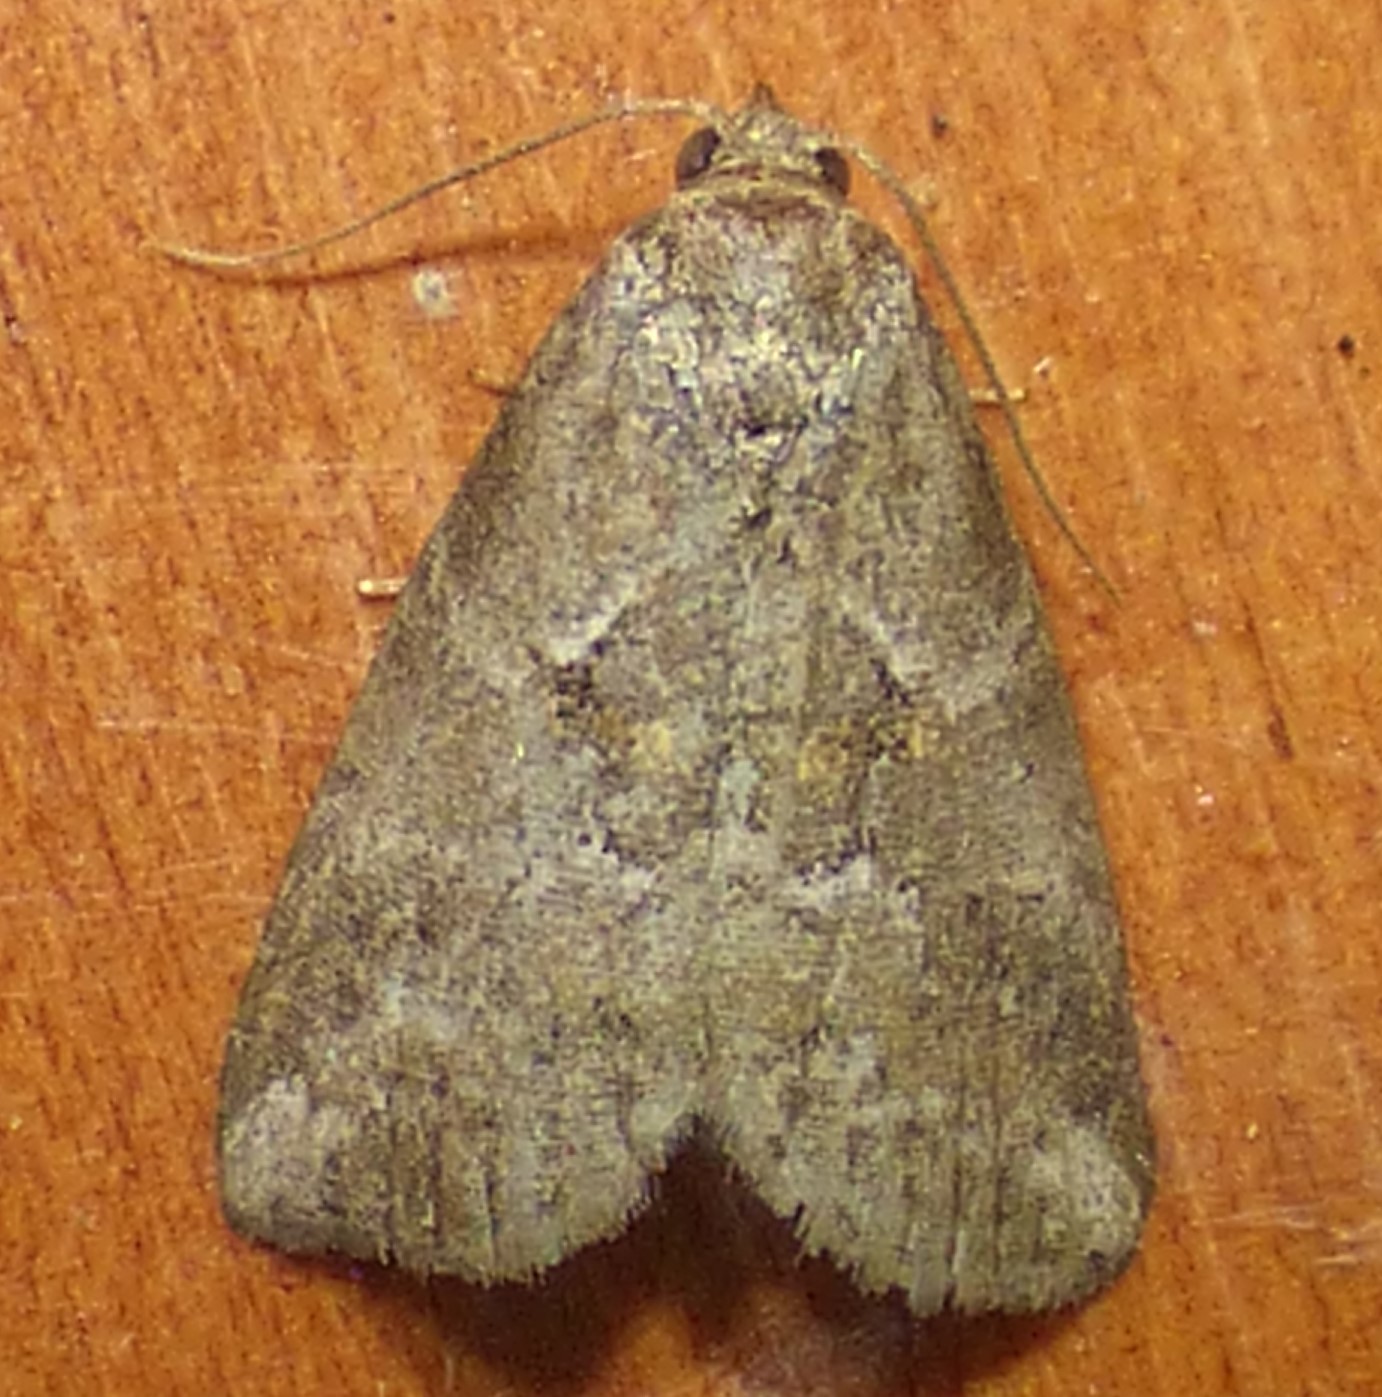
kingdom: Animalia
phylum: Arthropoda
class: Insecta
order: Lepidoptera
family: Erebidae
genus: Hyperstrotia
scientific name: Hyperstrotia nana
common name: White-lined graylet
